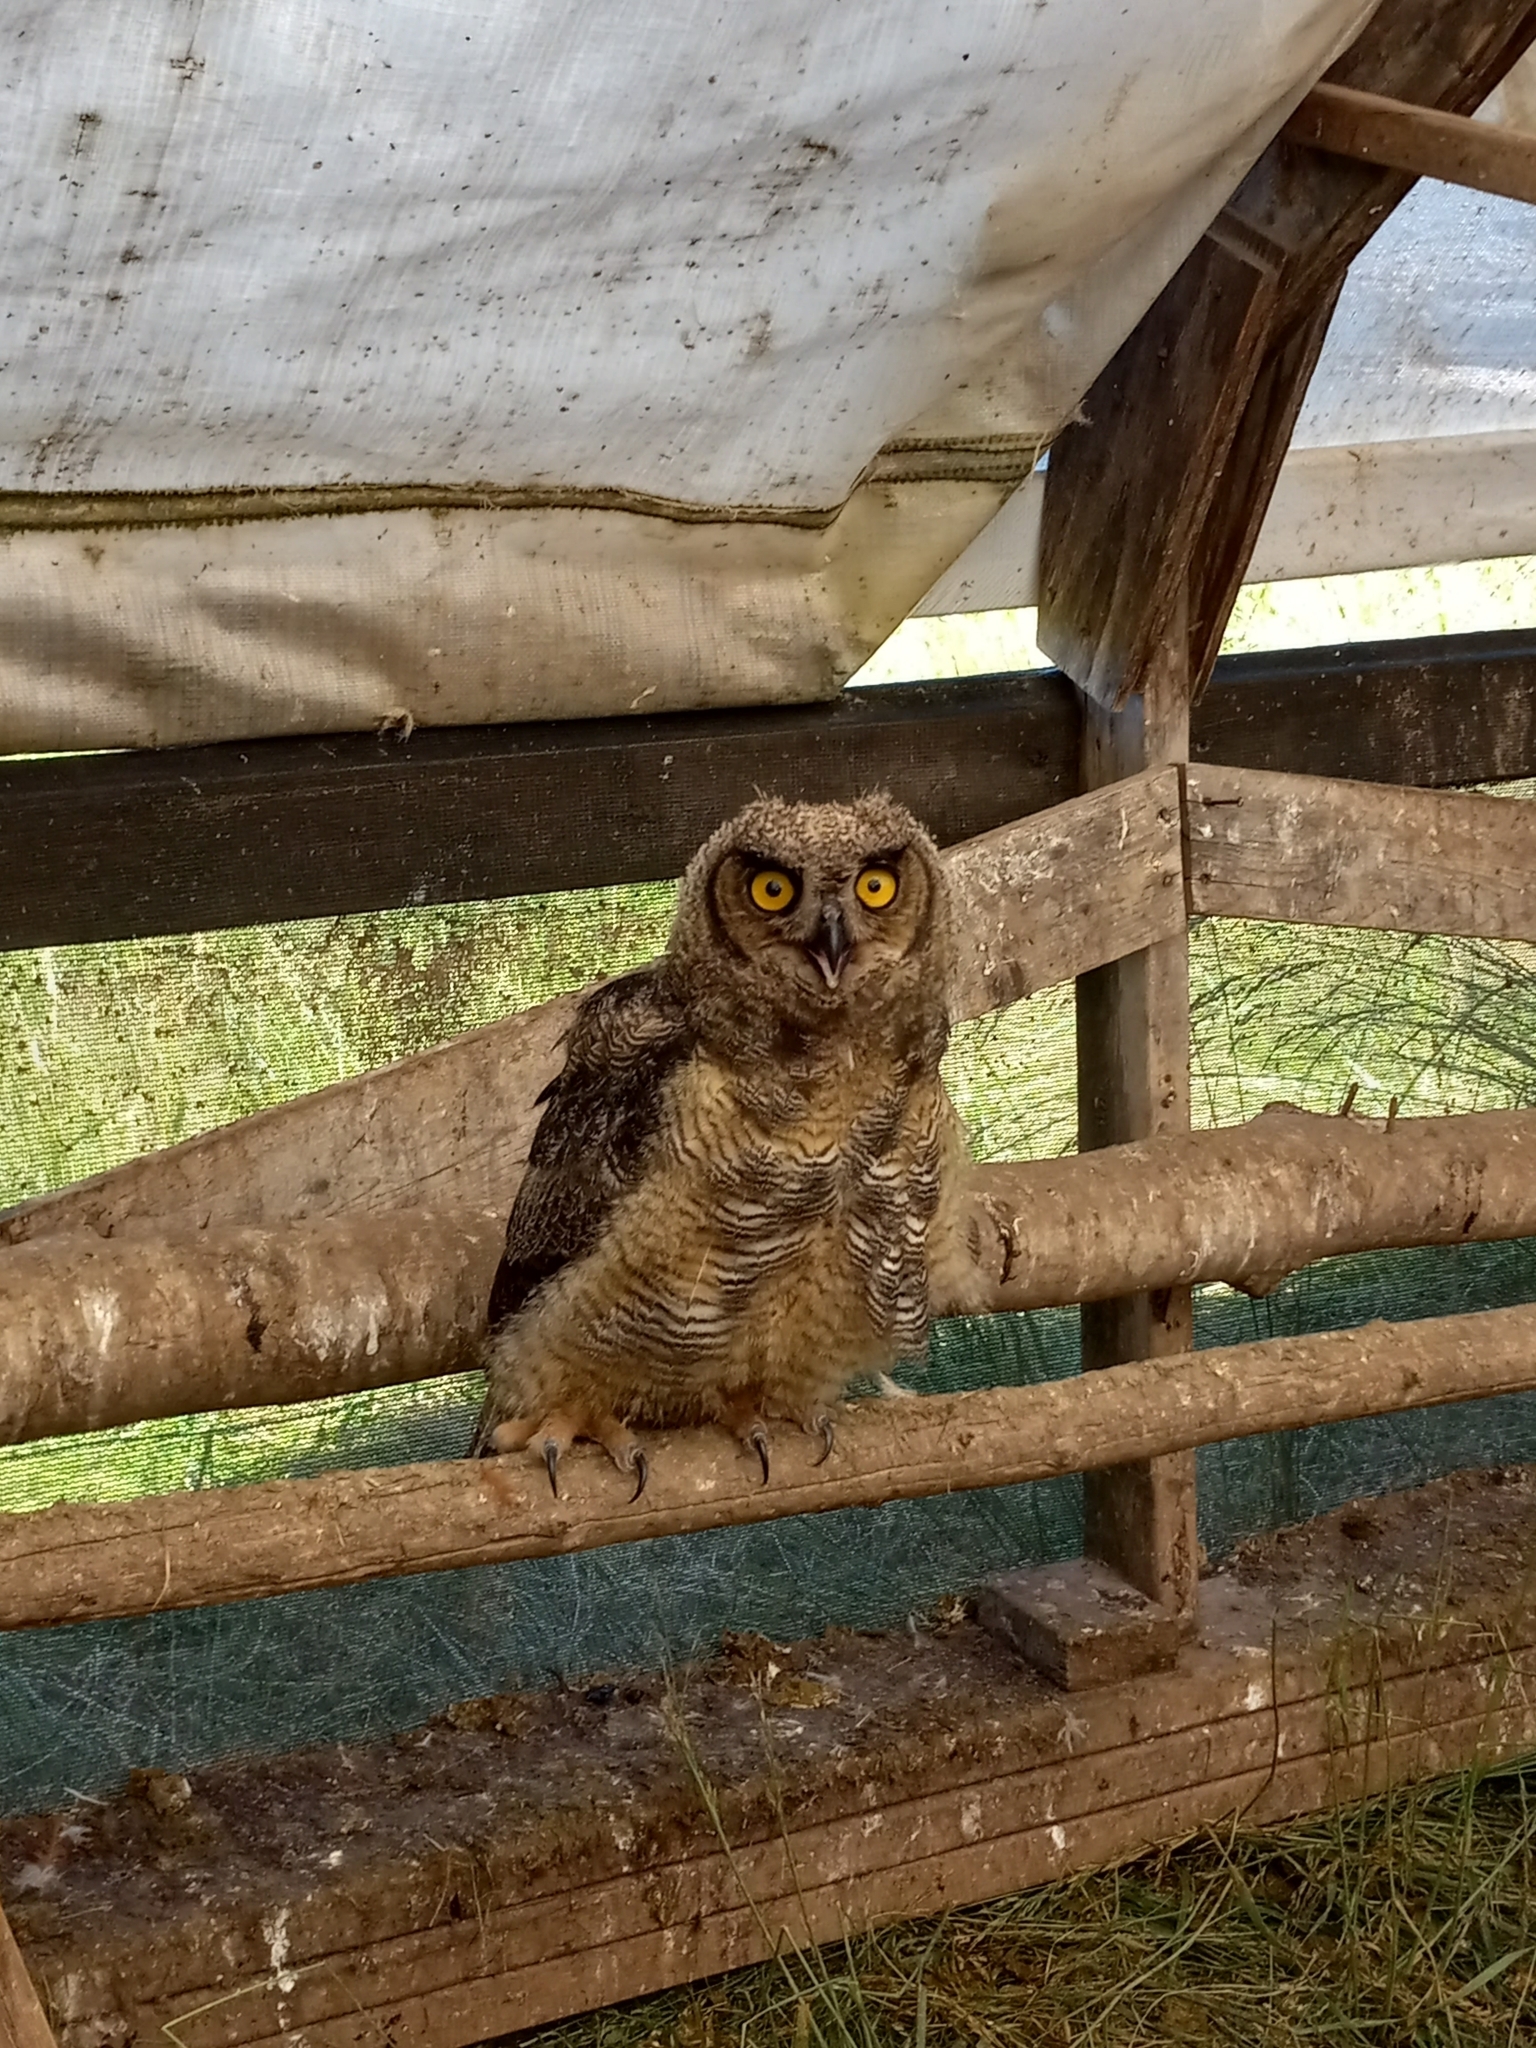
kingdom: Animalia
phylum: Chordata
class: Aves
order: Strigiformes
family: Strigidae
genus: Bubo
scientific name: Bubo virginianus
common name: Great horned owl
